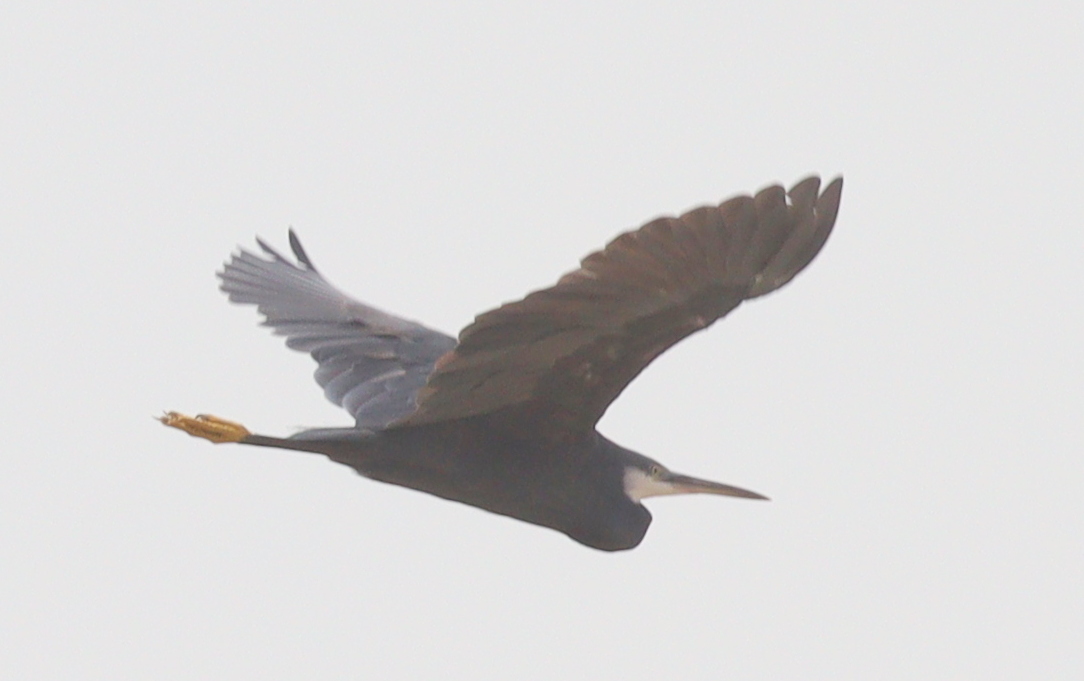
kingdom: Animalia
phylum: Chordata
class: Aves
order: Pelecaniformes
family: Ardeidae
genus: Egretta
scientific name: Egretta gularis
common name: Western reef-heron
